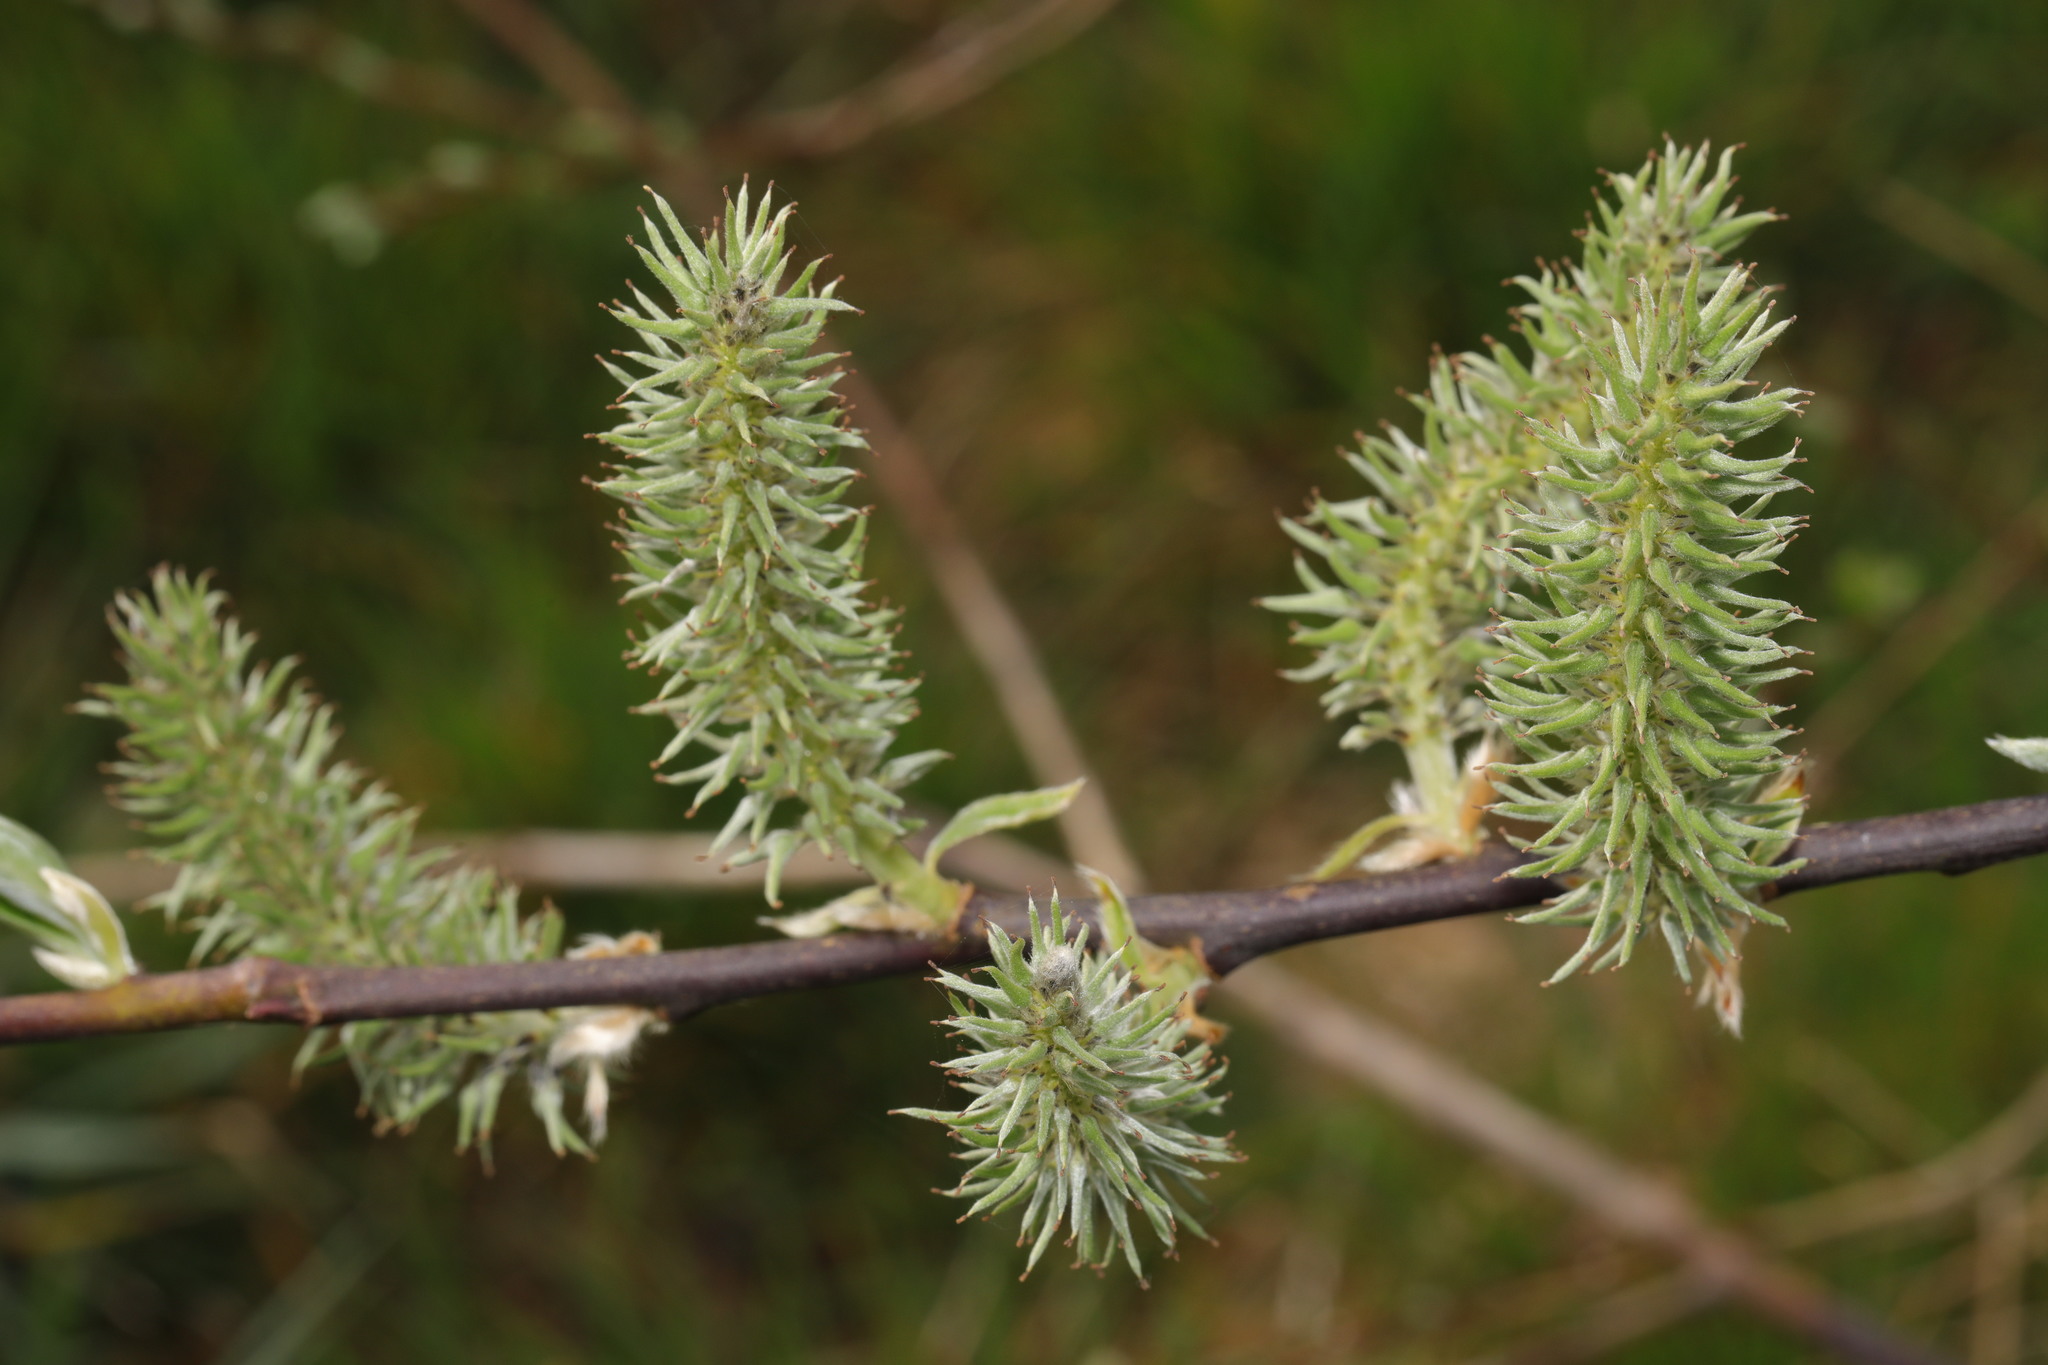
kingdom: Plantae
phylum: Tracheophyta
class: Magnoliopsida
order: Malpighiales
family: Salicaceae
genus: Salix
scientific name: Salix cinerea
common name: Common sallow
